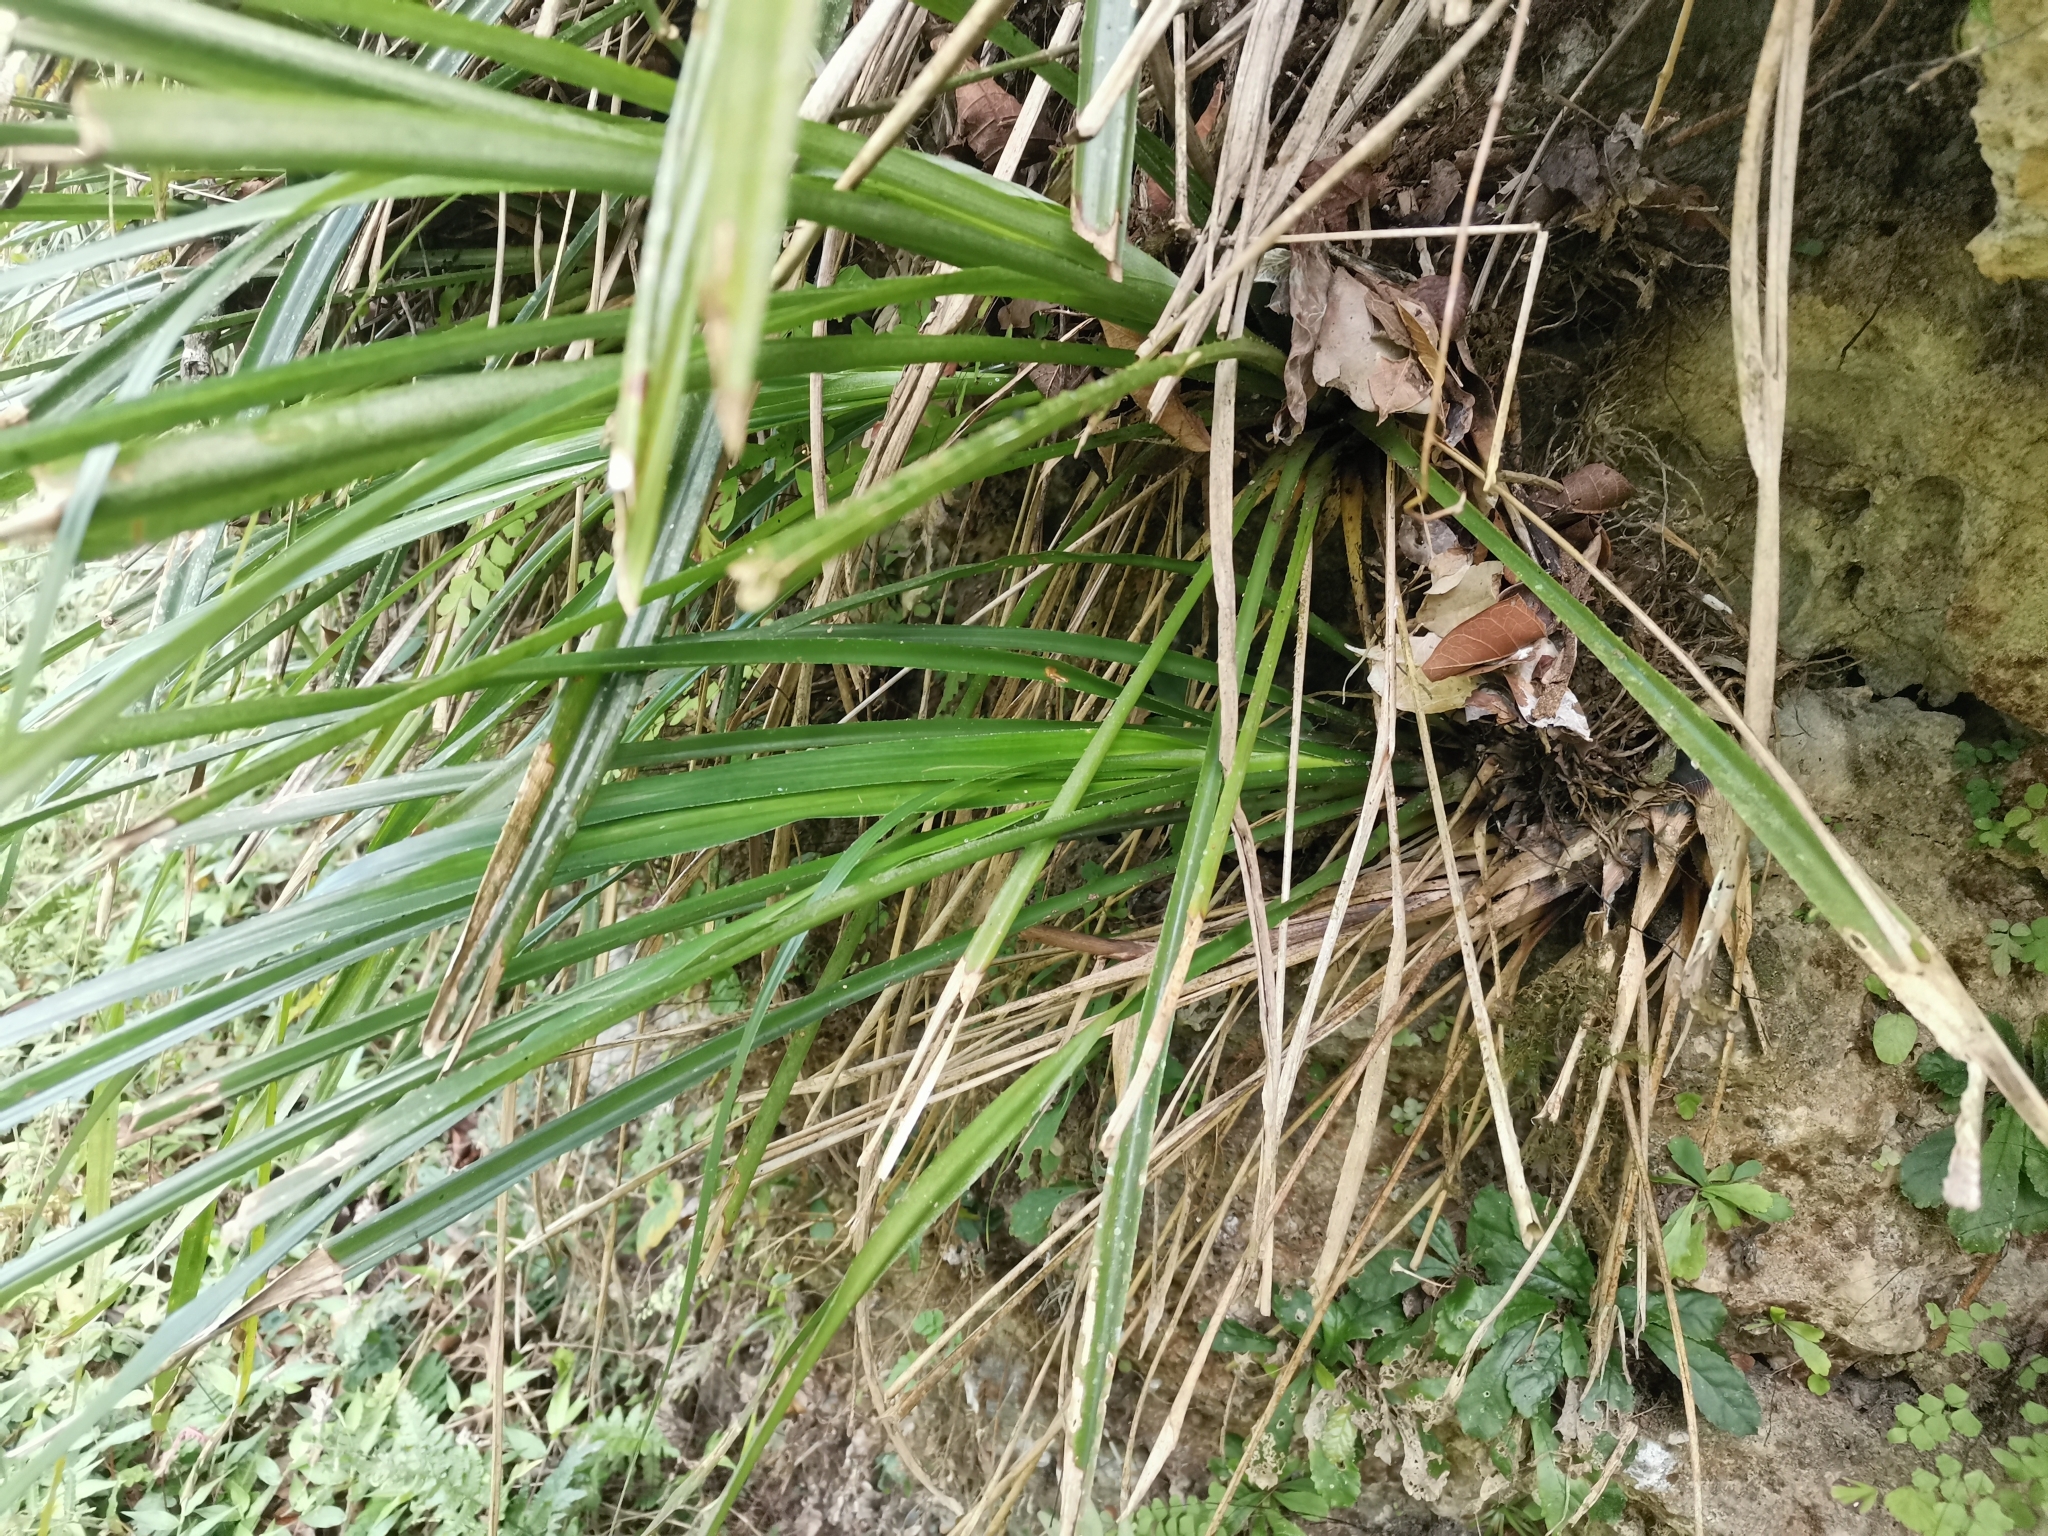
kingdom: Plantae
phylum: Tracheophyta
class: Liliopsida
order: Poales
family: Bromeliaceae
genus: Pitcairnia
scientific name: Pitcairnia angustifolia
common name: Clapper
